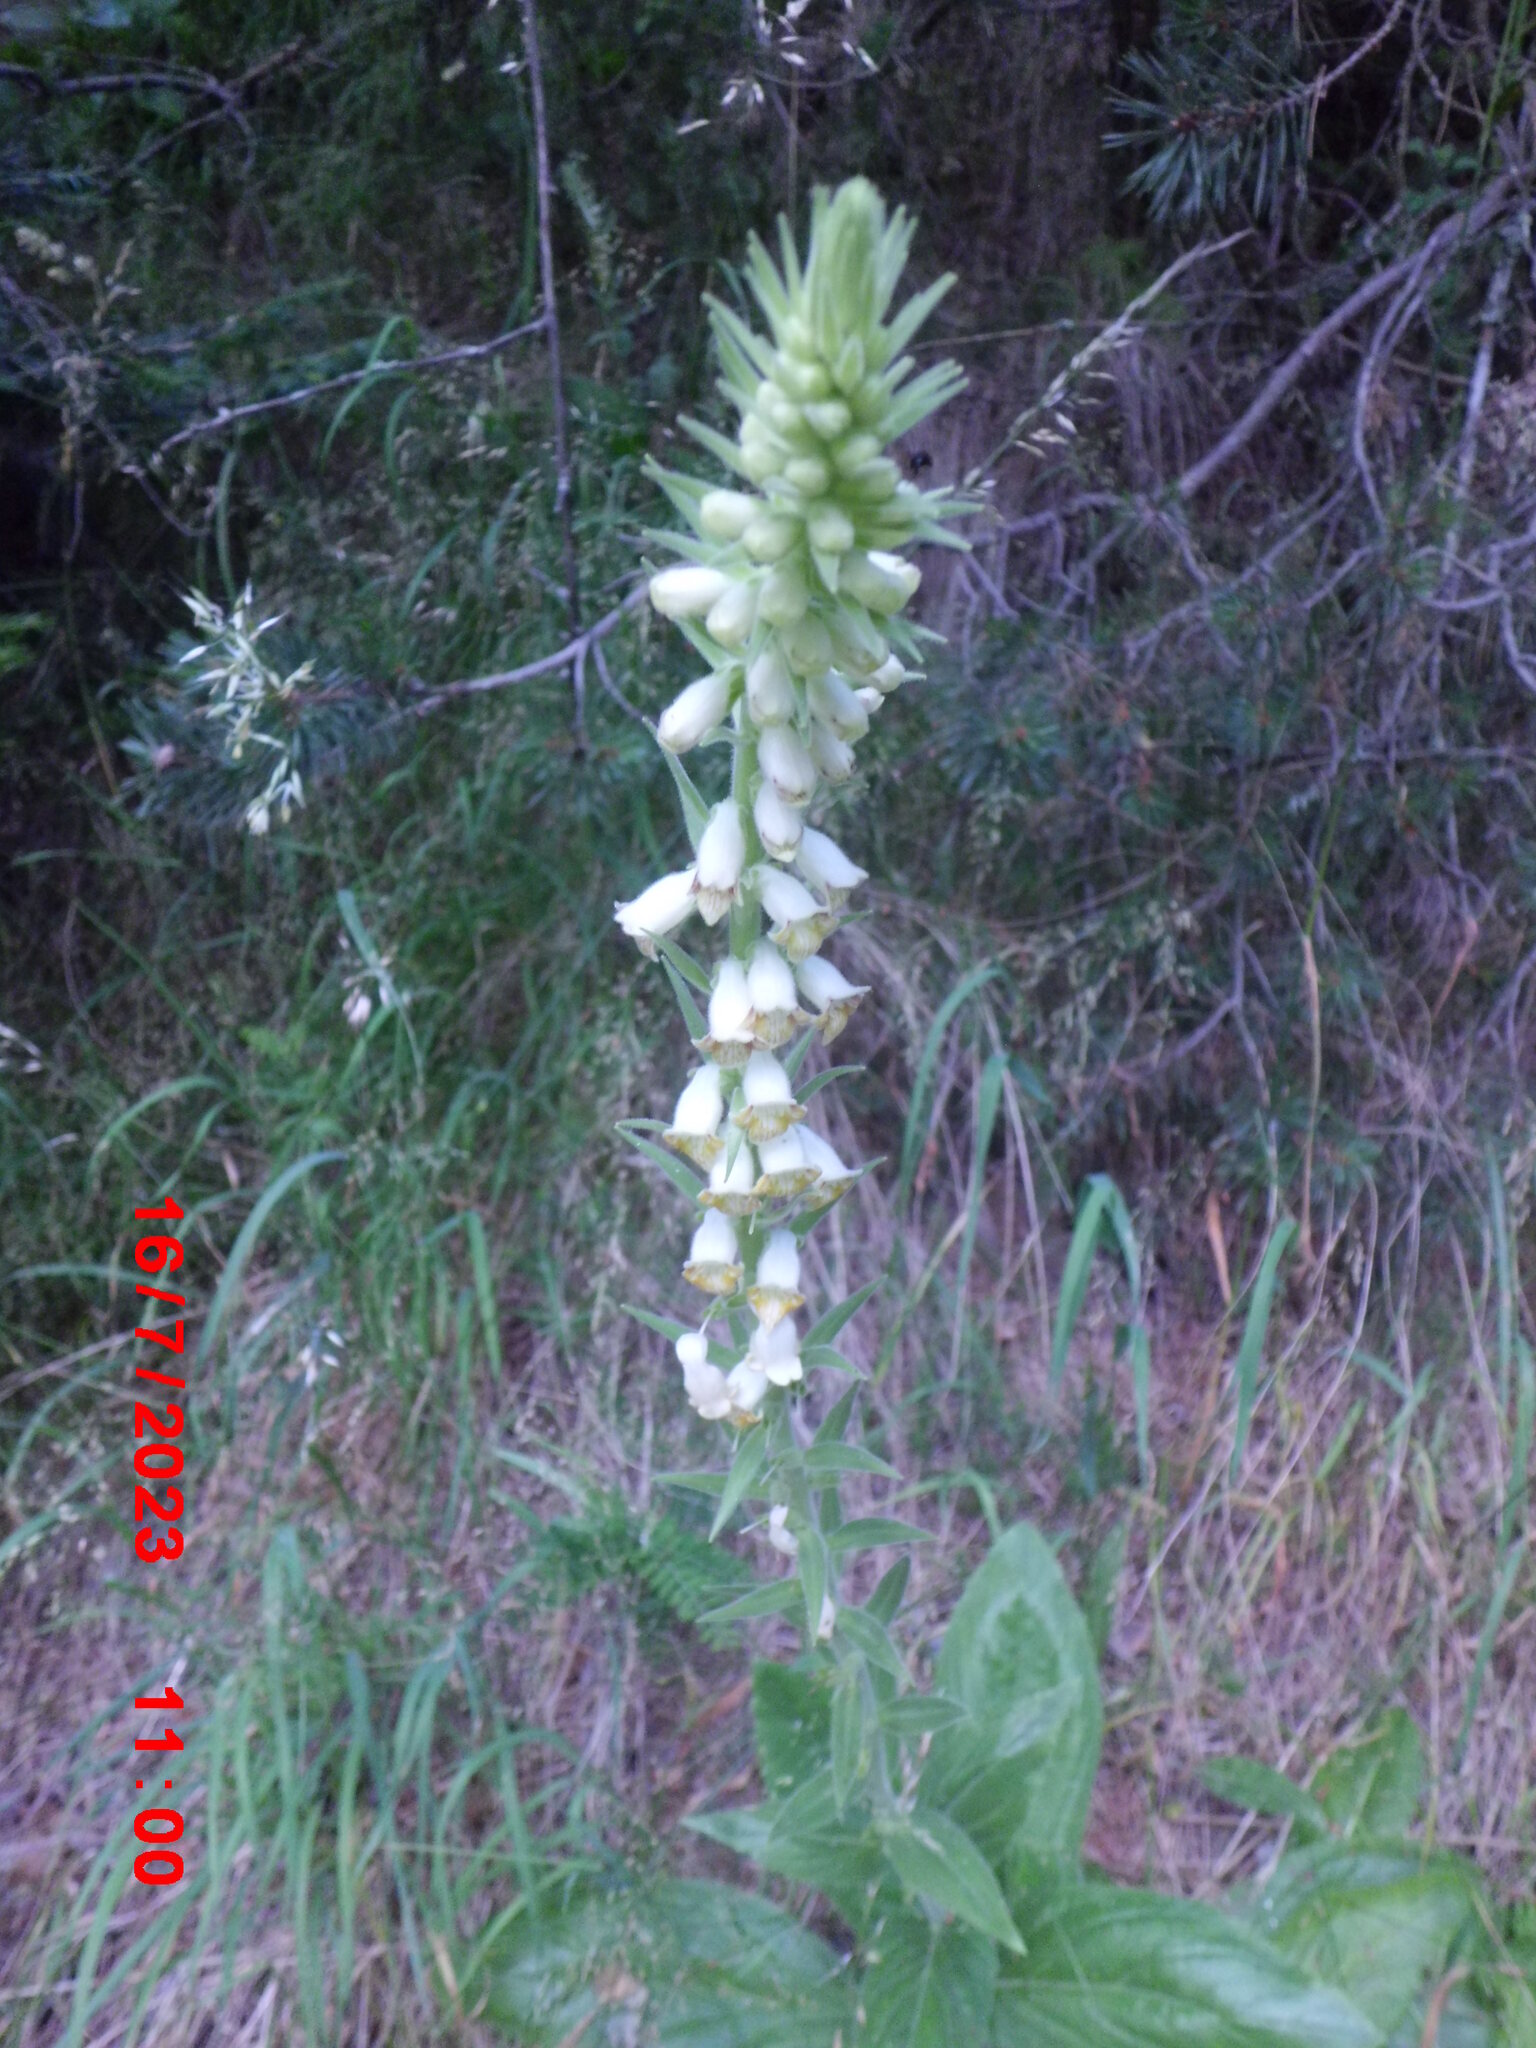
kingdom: Plantae
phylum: Tracheophyta
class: Magnoliopsida
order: Lamiales
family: Plantaginaceae
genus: Digitalis
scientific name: Digitalis viridiflora
